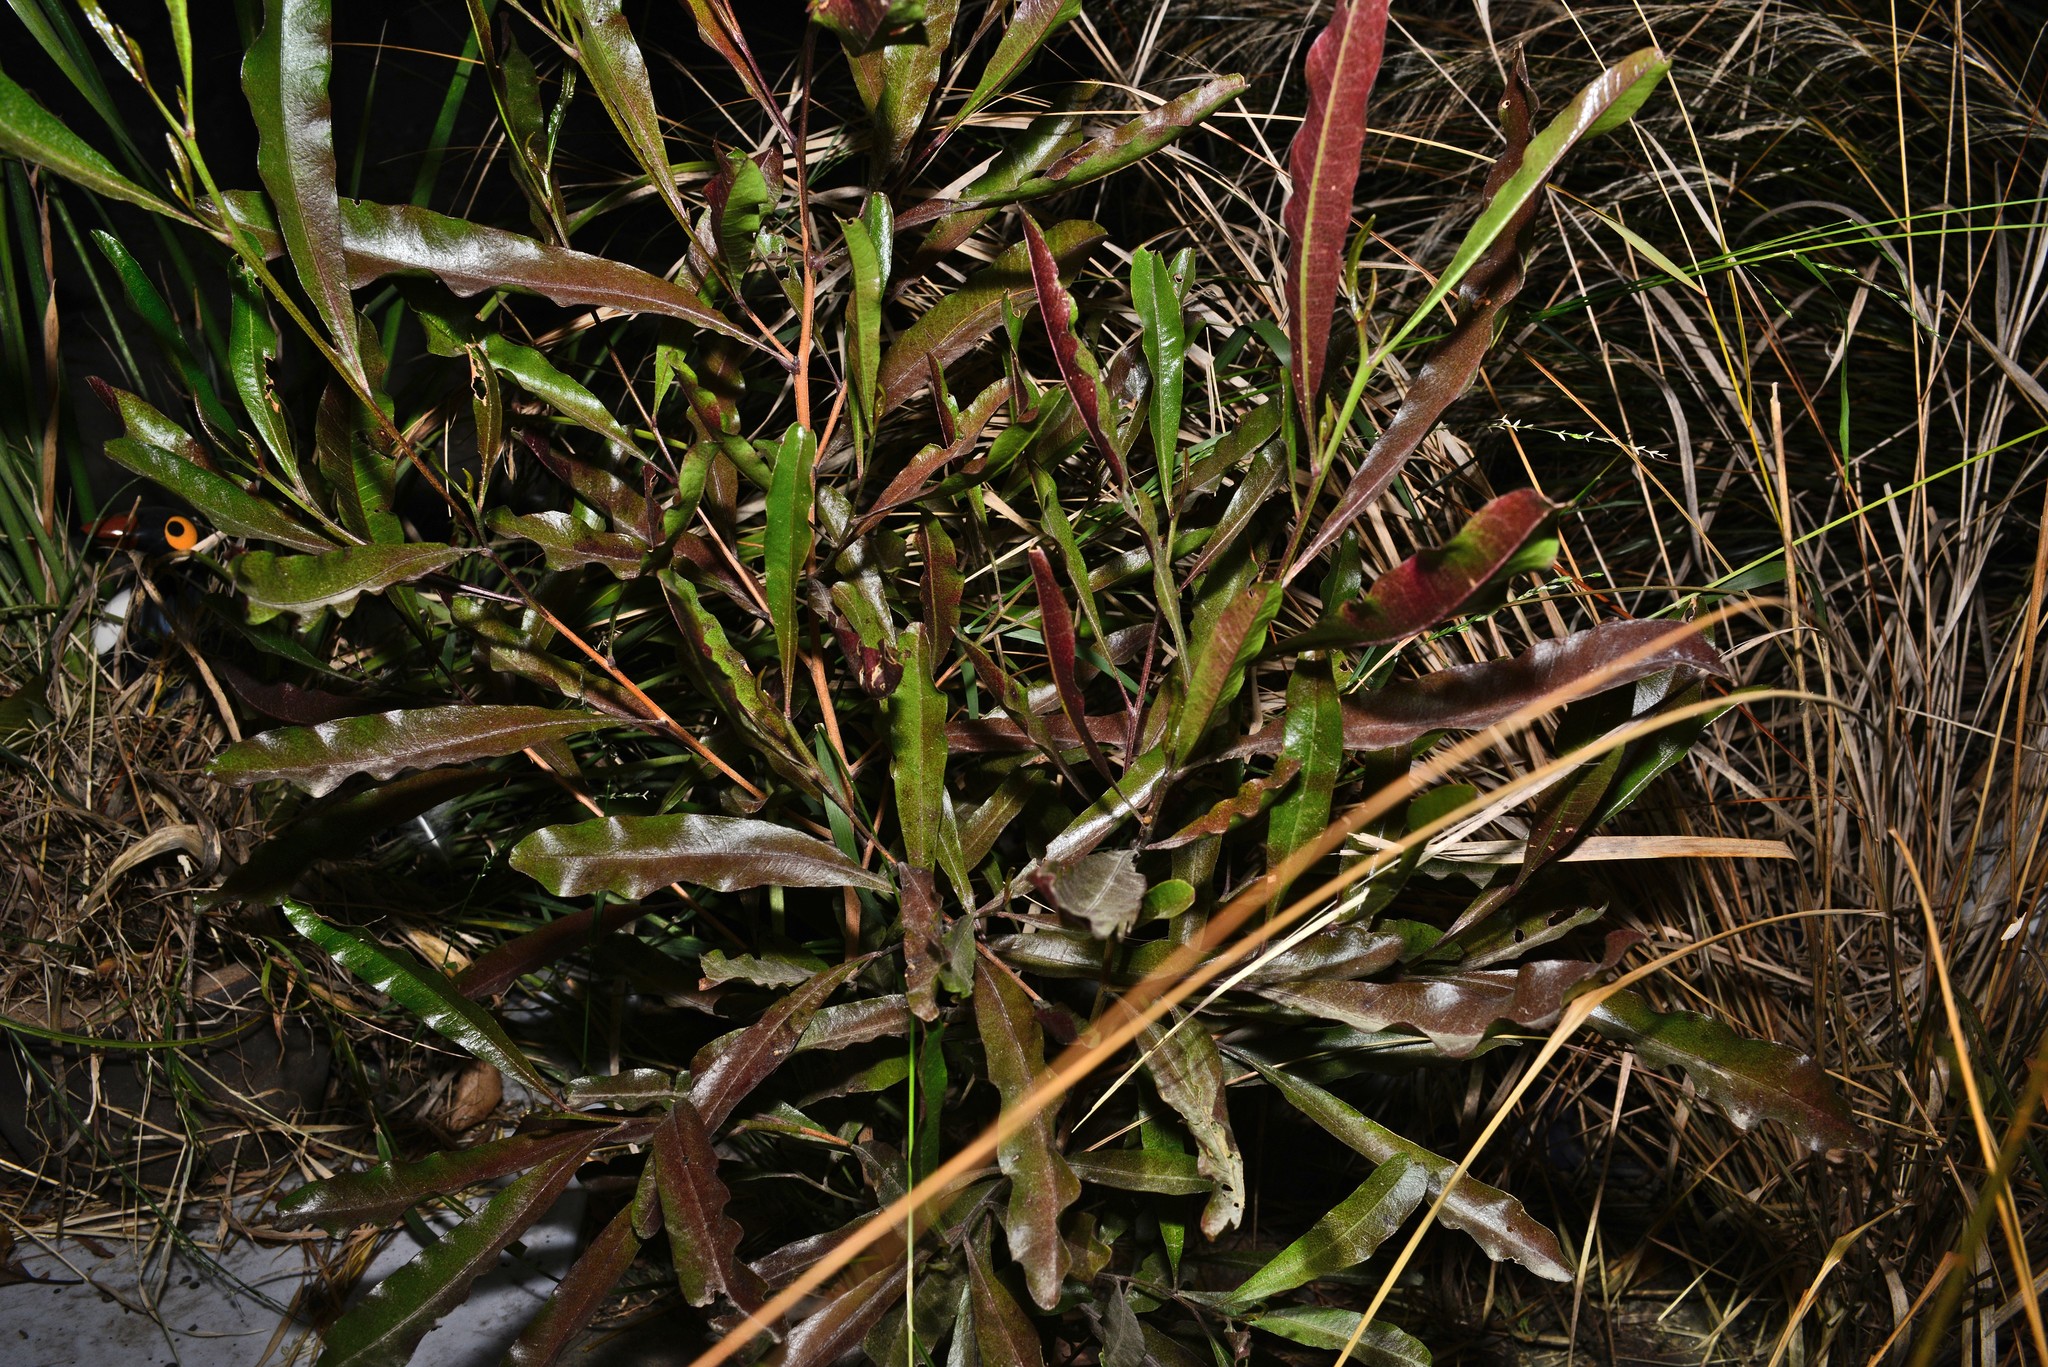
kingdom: Plantae
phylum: Tracheophyta
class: Magnoliopsida
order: Sapindales
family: Sapindaceae
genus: Dodonaea
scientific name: Dodonaea viscosa
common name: Hopbush
